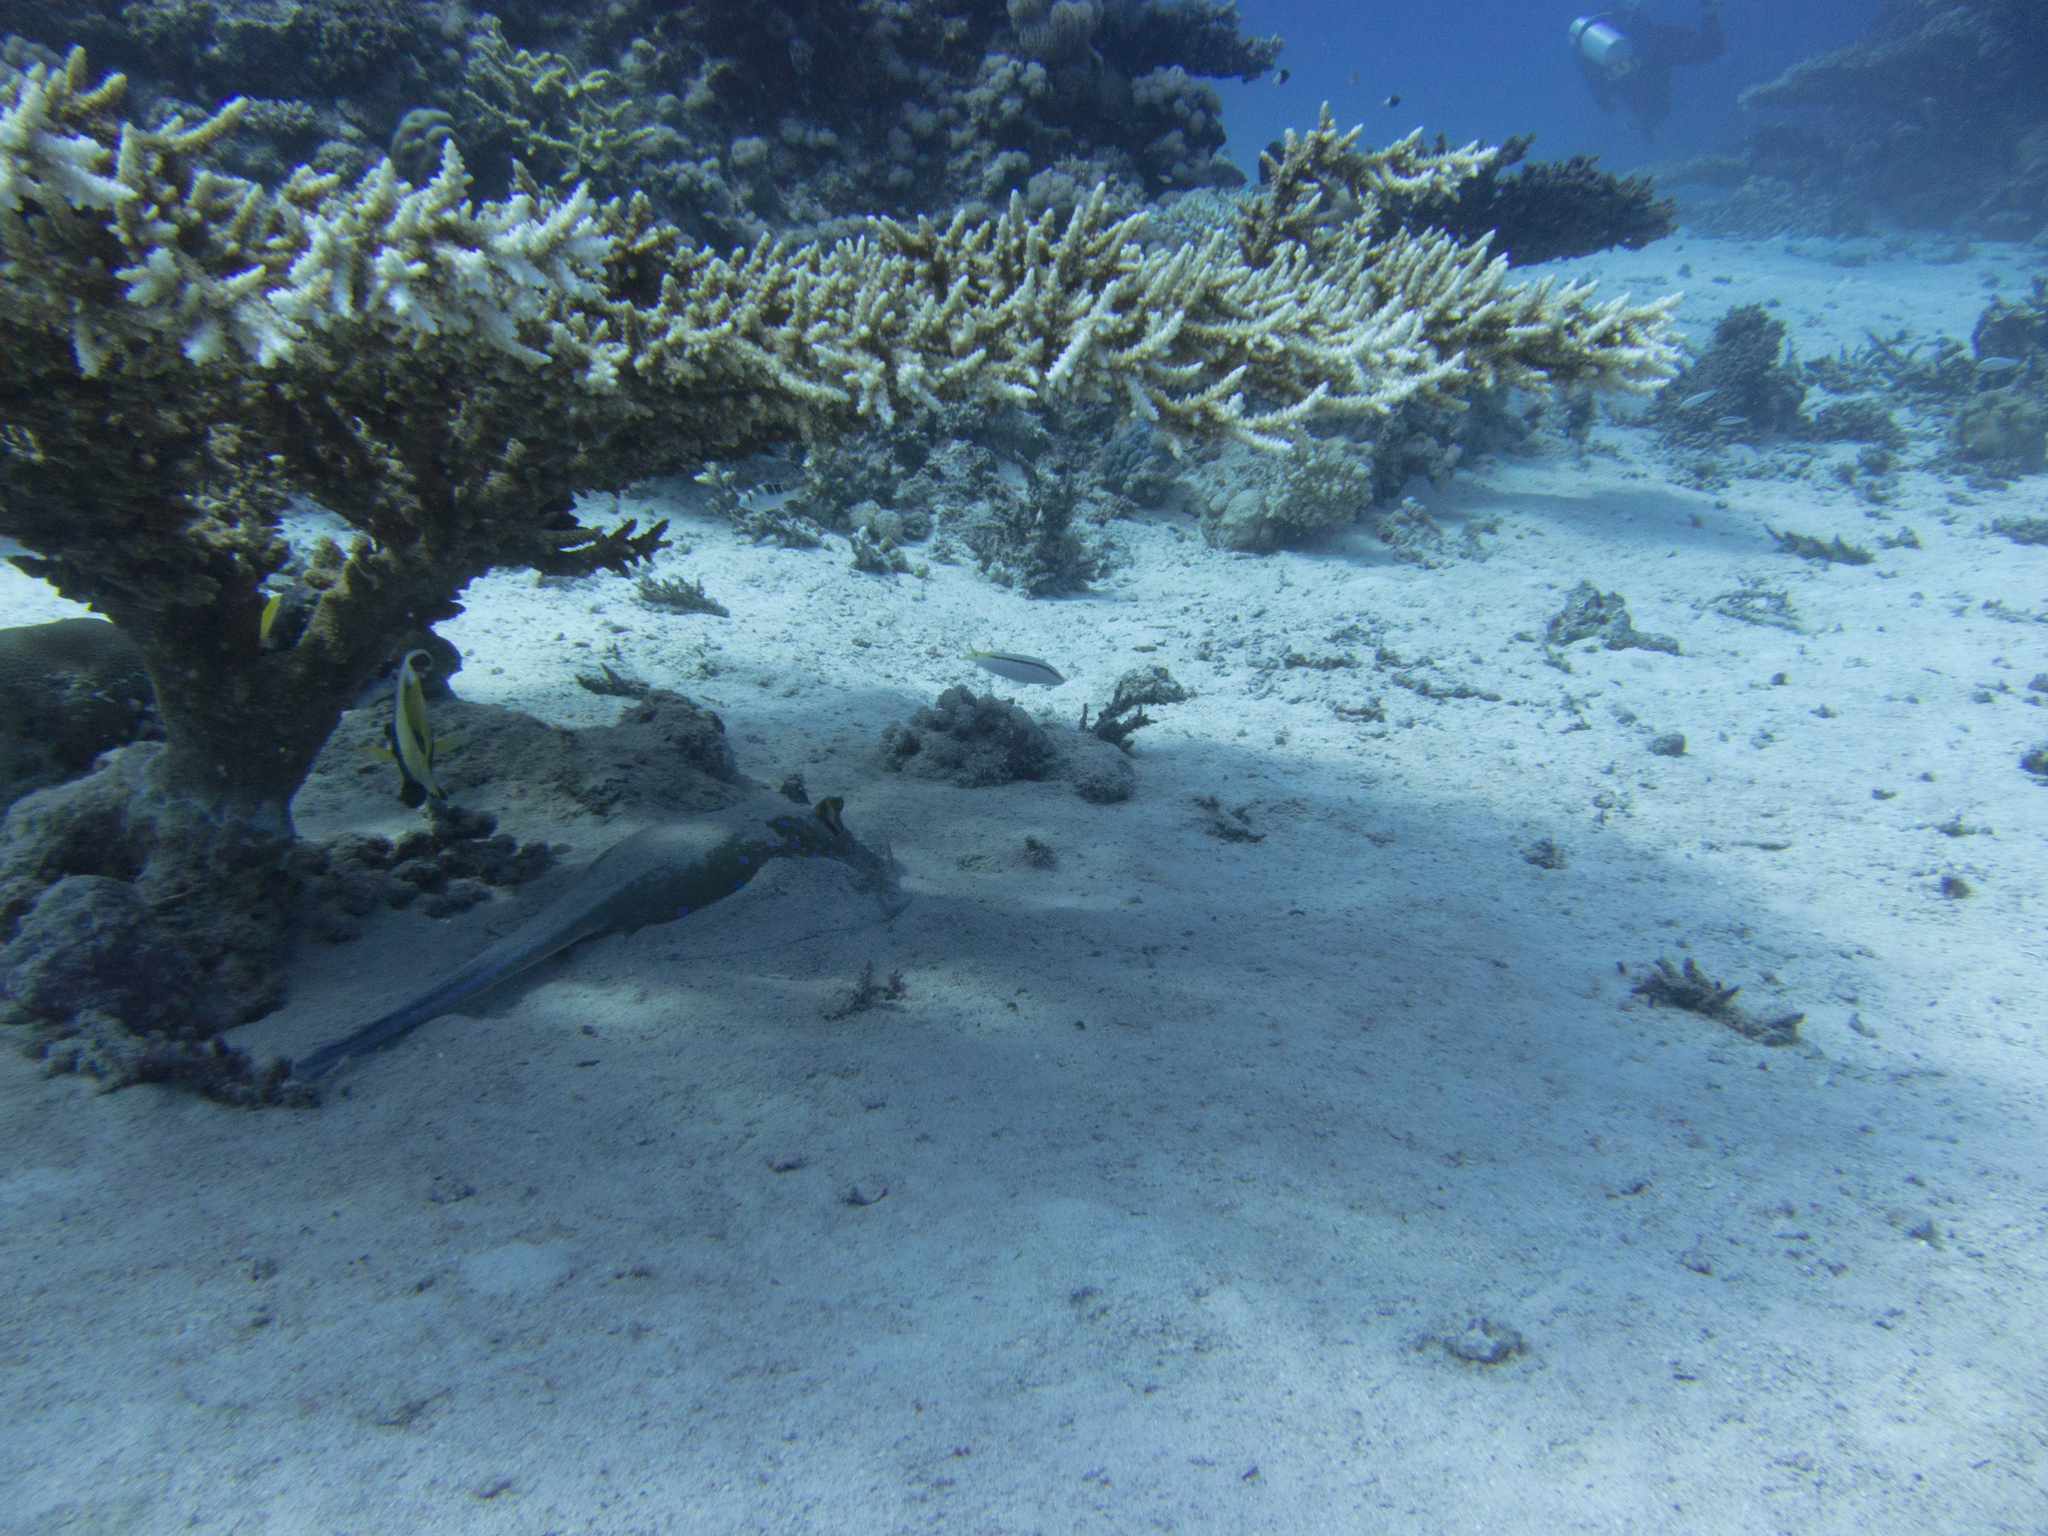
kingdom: Animalia
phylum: Chordata
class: Elasmobranchii
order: Myliobatiformes
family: Dasyatidae
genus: Taeniura
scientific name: Taeniura lymma
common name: Bluespotted ribbontail ray
